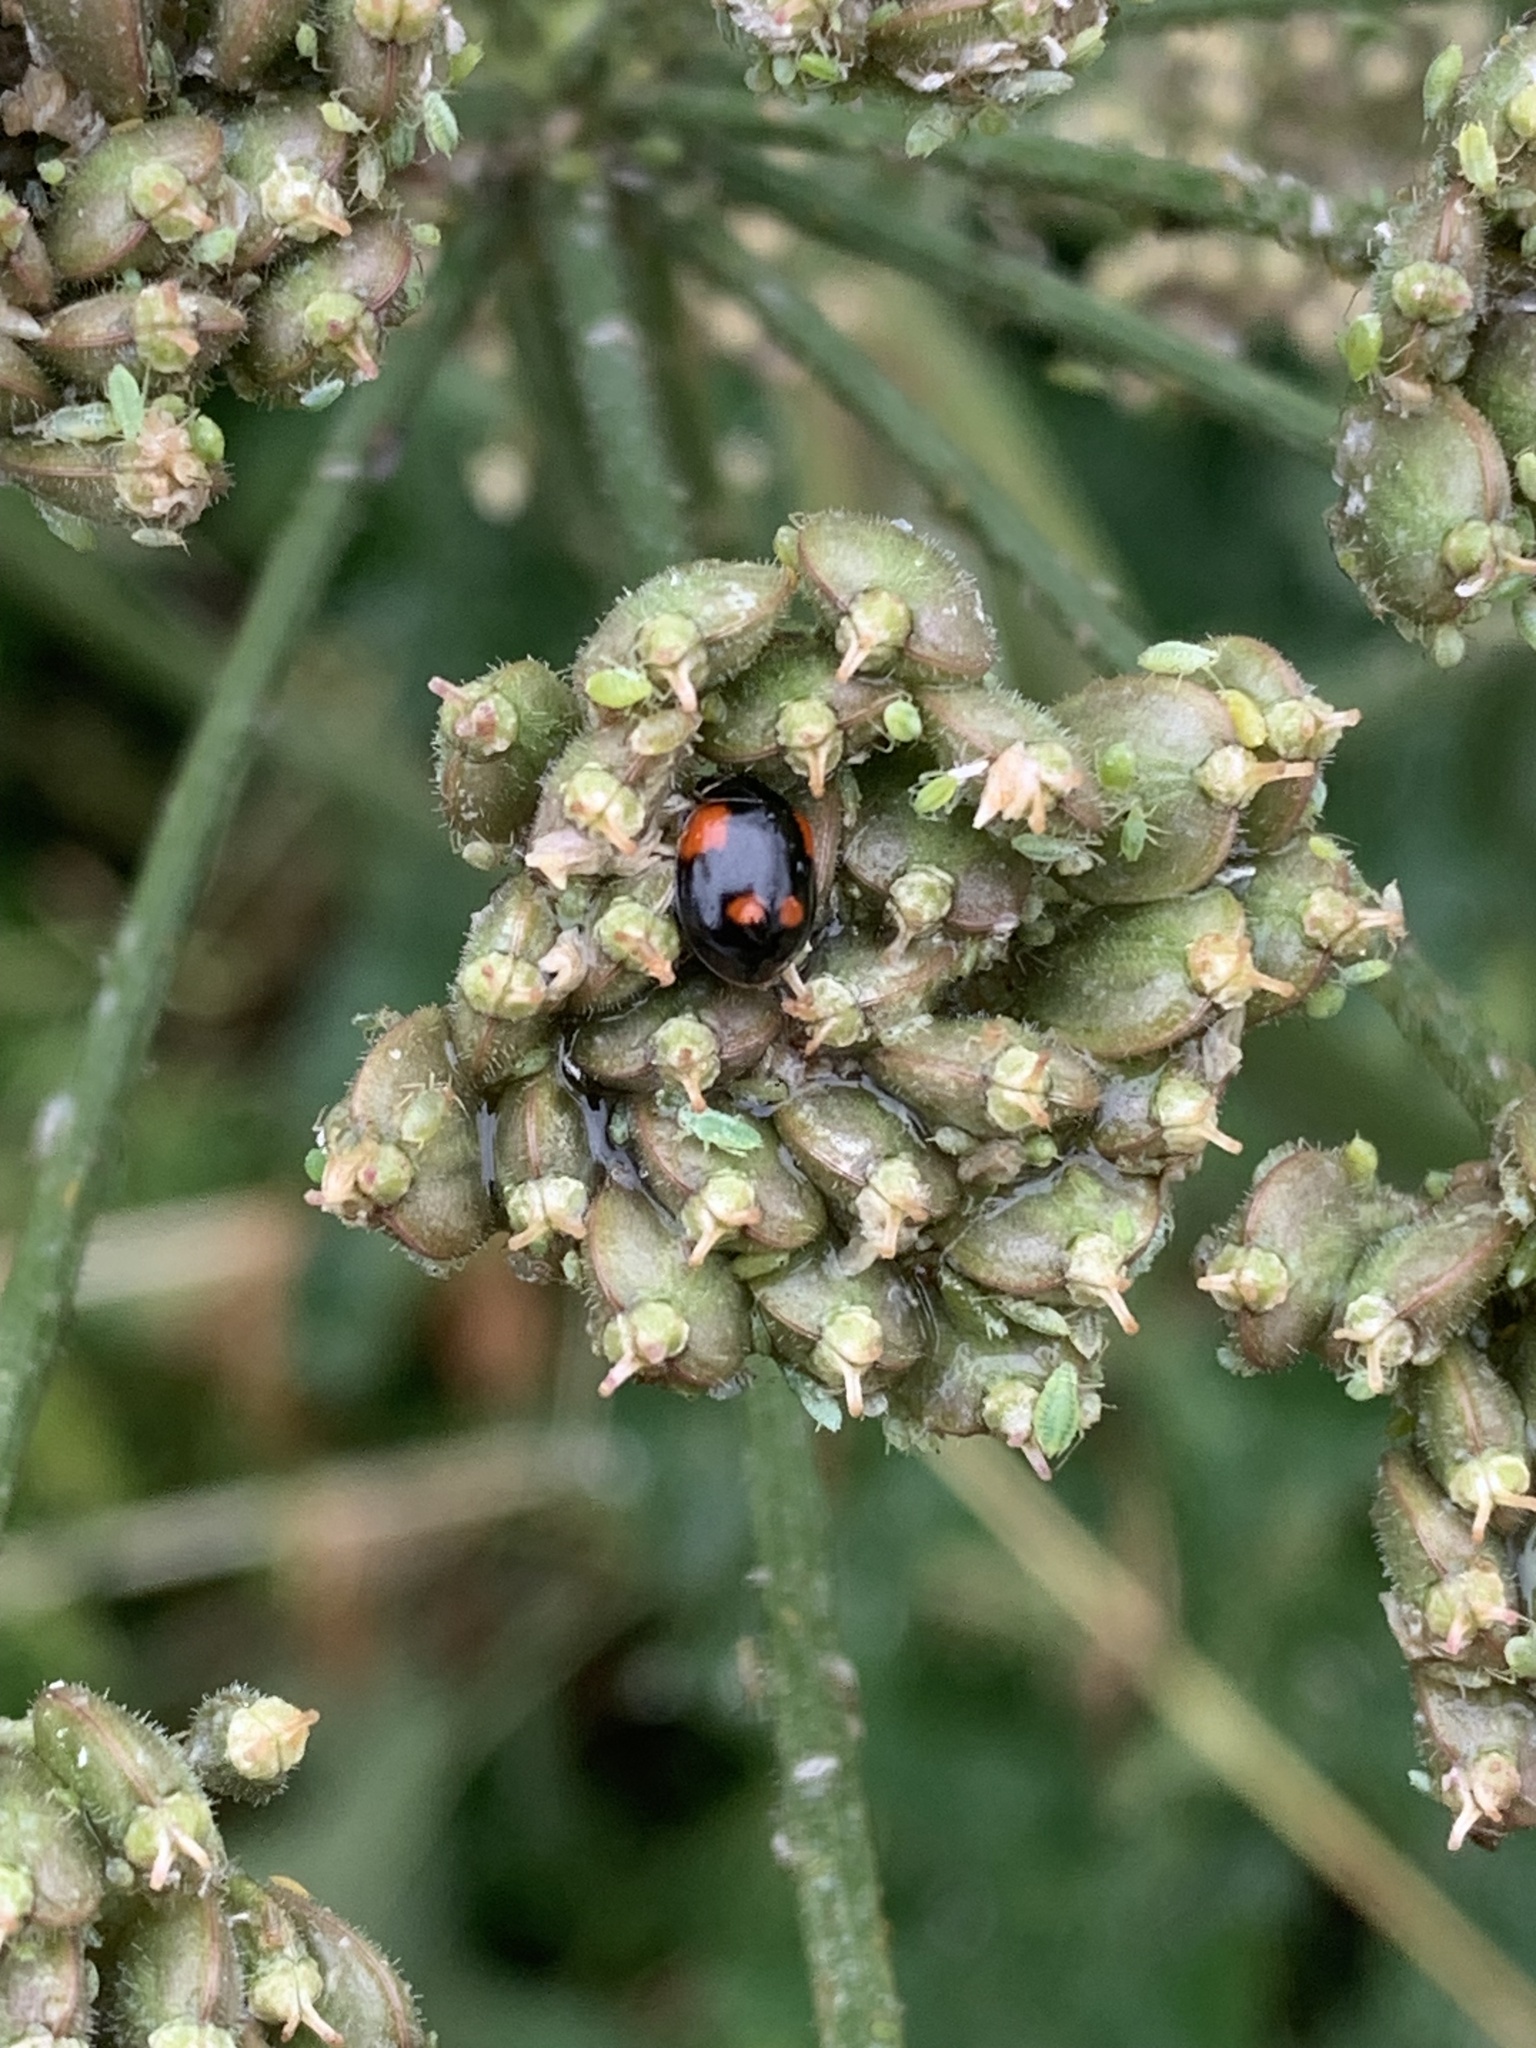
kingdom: Animalia
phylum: Arthropoda
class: Insecta
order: Coleoptera
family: Coccinellidae
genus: Adalia
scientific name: Adalia bipunctata
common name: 2-spot ladybird
